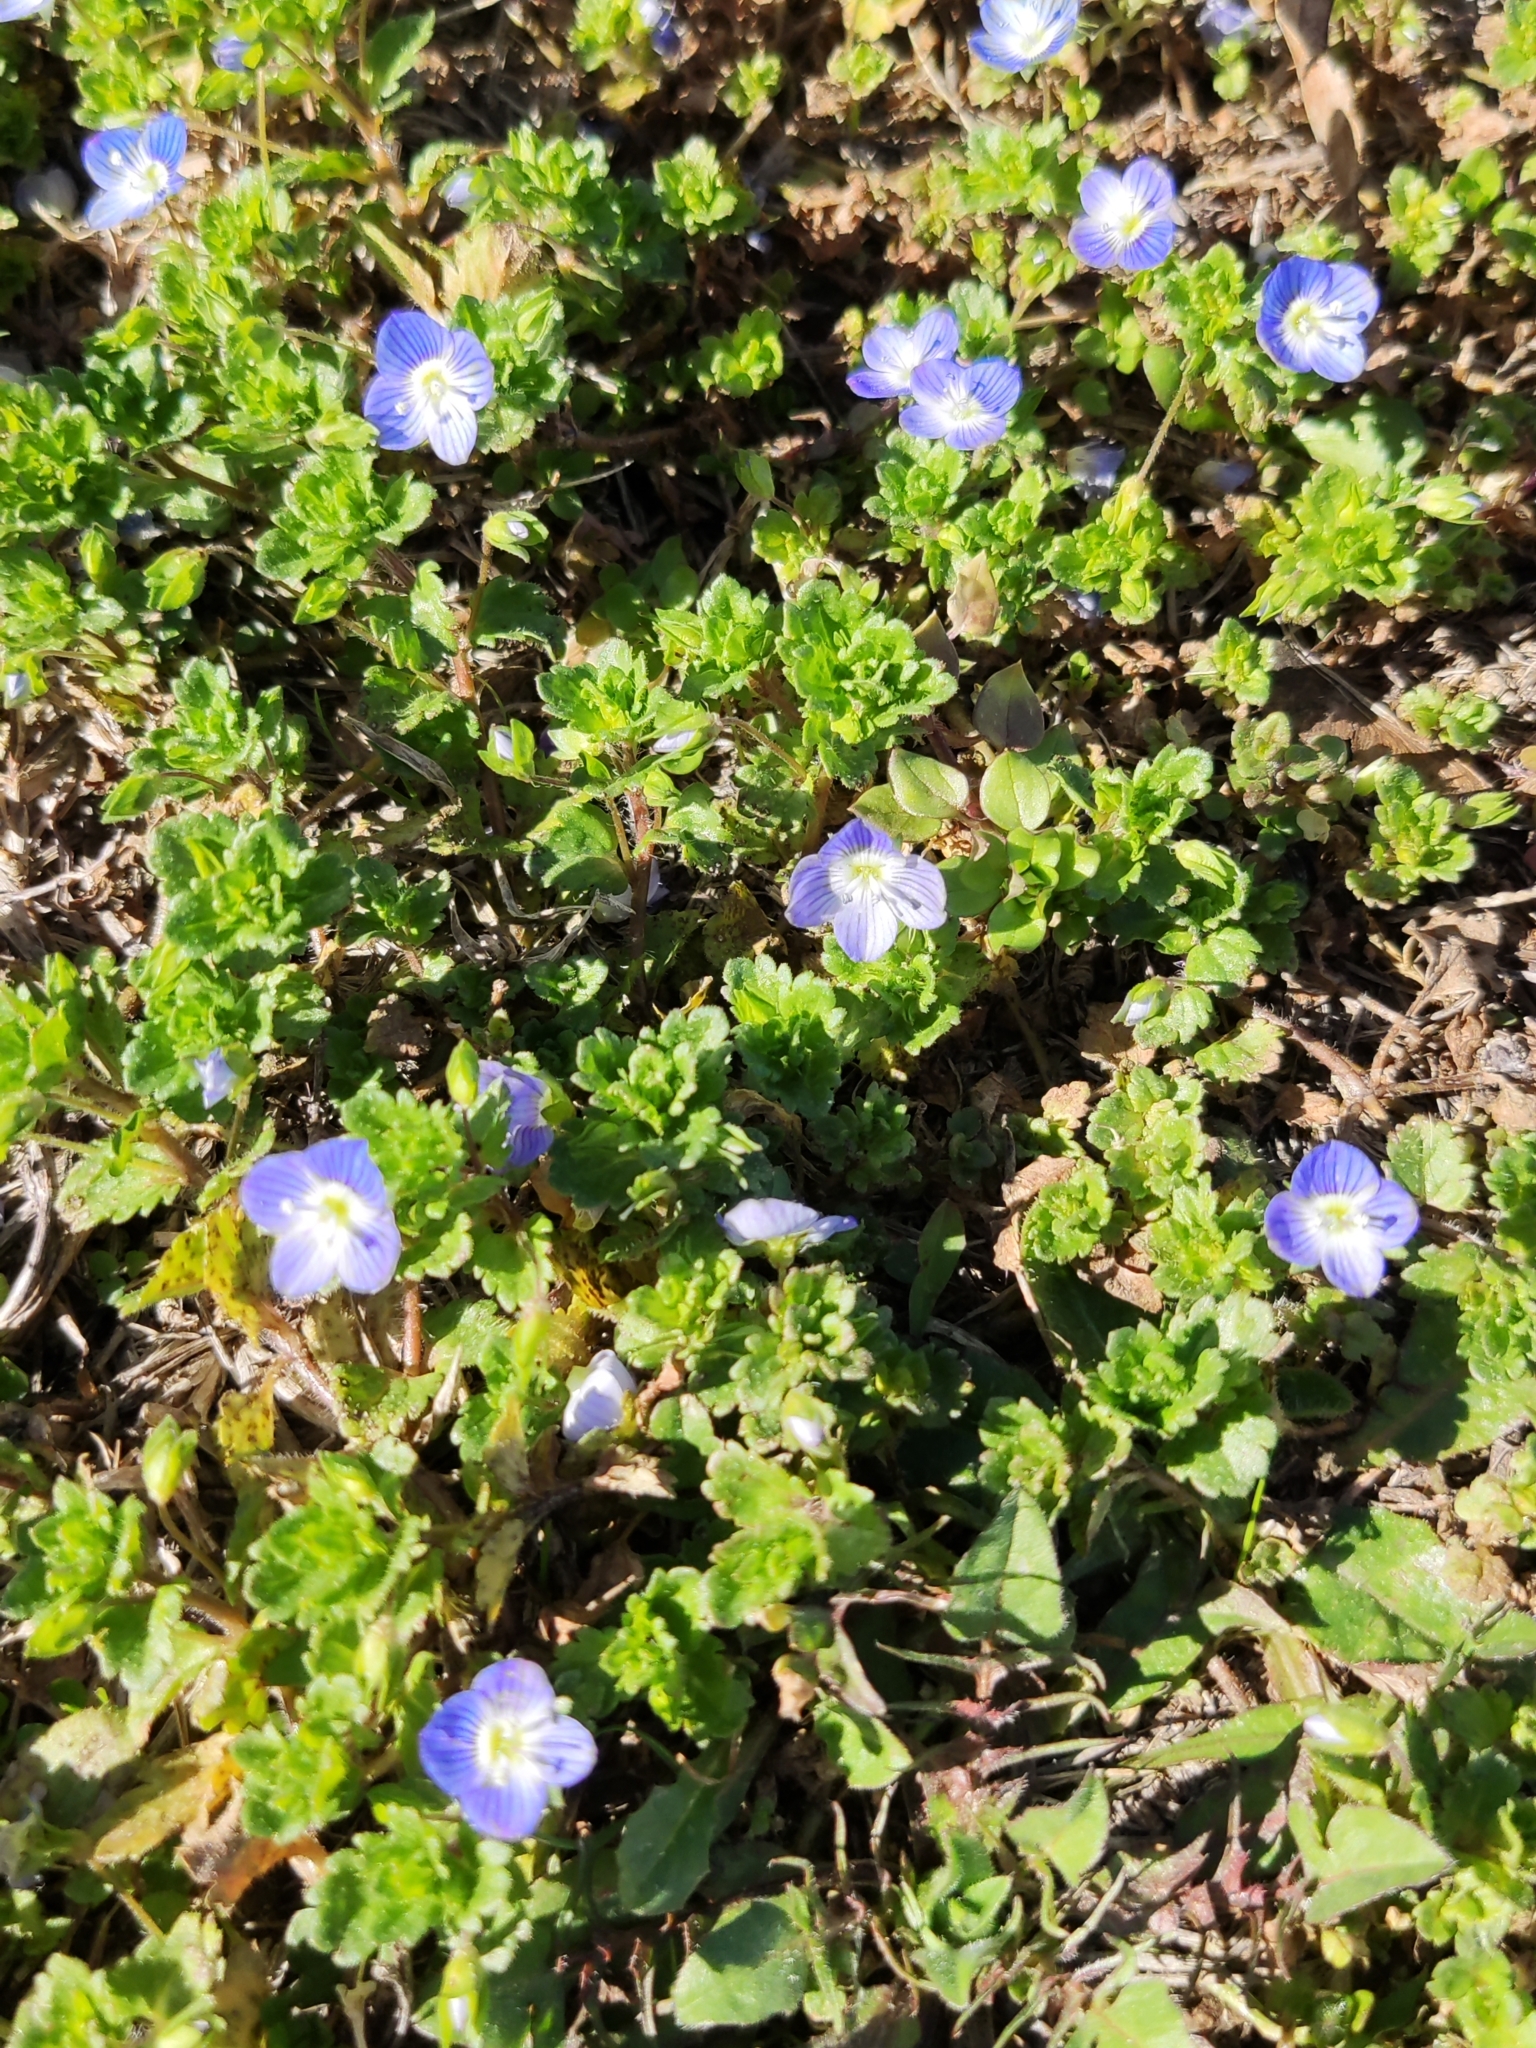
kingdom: Plantae
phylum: Tracheophyta
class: Magnoliopsida
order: Lamiales
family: Plantaginaceae
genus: Veronica
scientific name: Veronica persica
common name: Common field-speedwell
